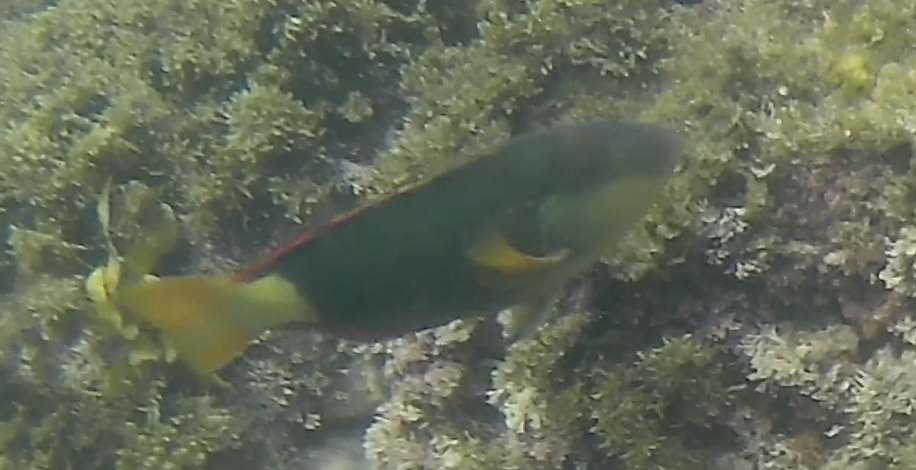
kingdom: Animalia
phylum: Chordata
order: Perciformes
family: Labridae
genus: Notolabrus
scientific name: Notolabrus gymnogenis
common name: Crimson banded wrasse
